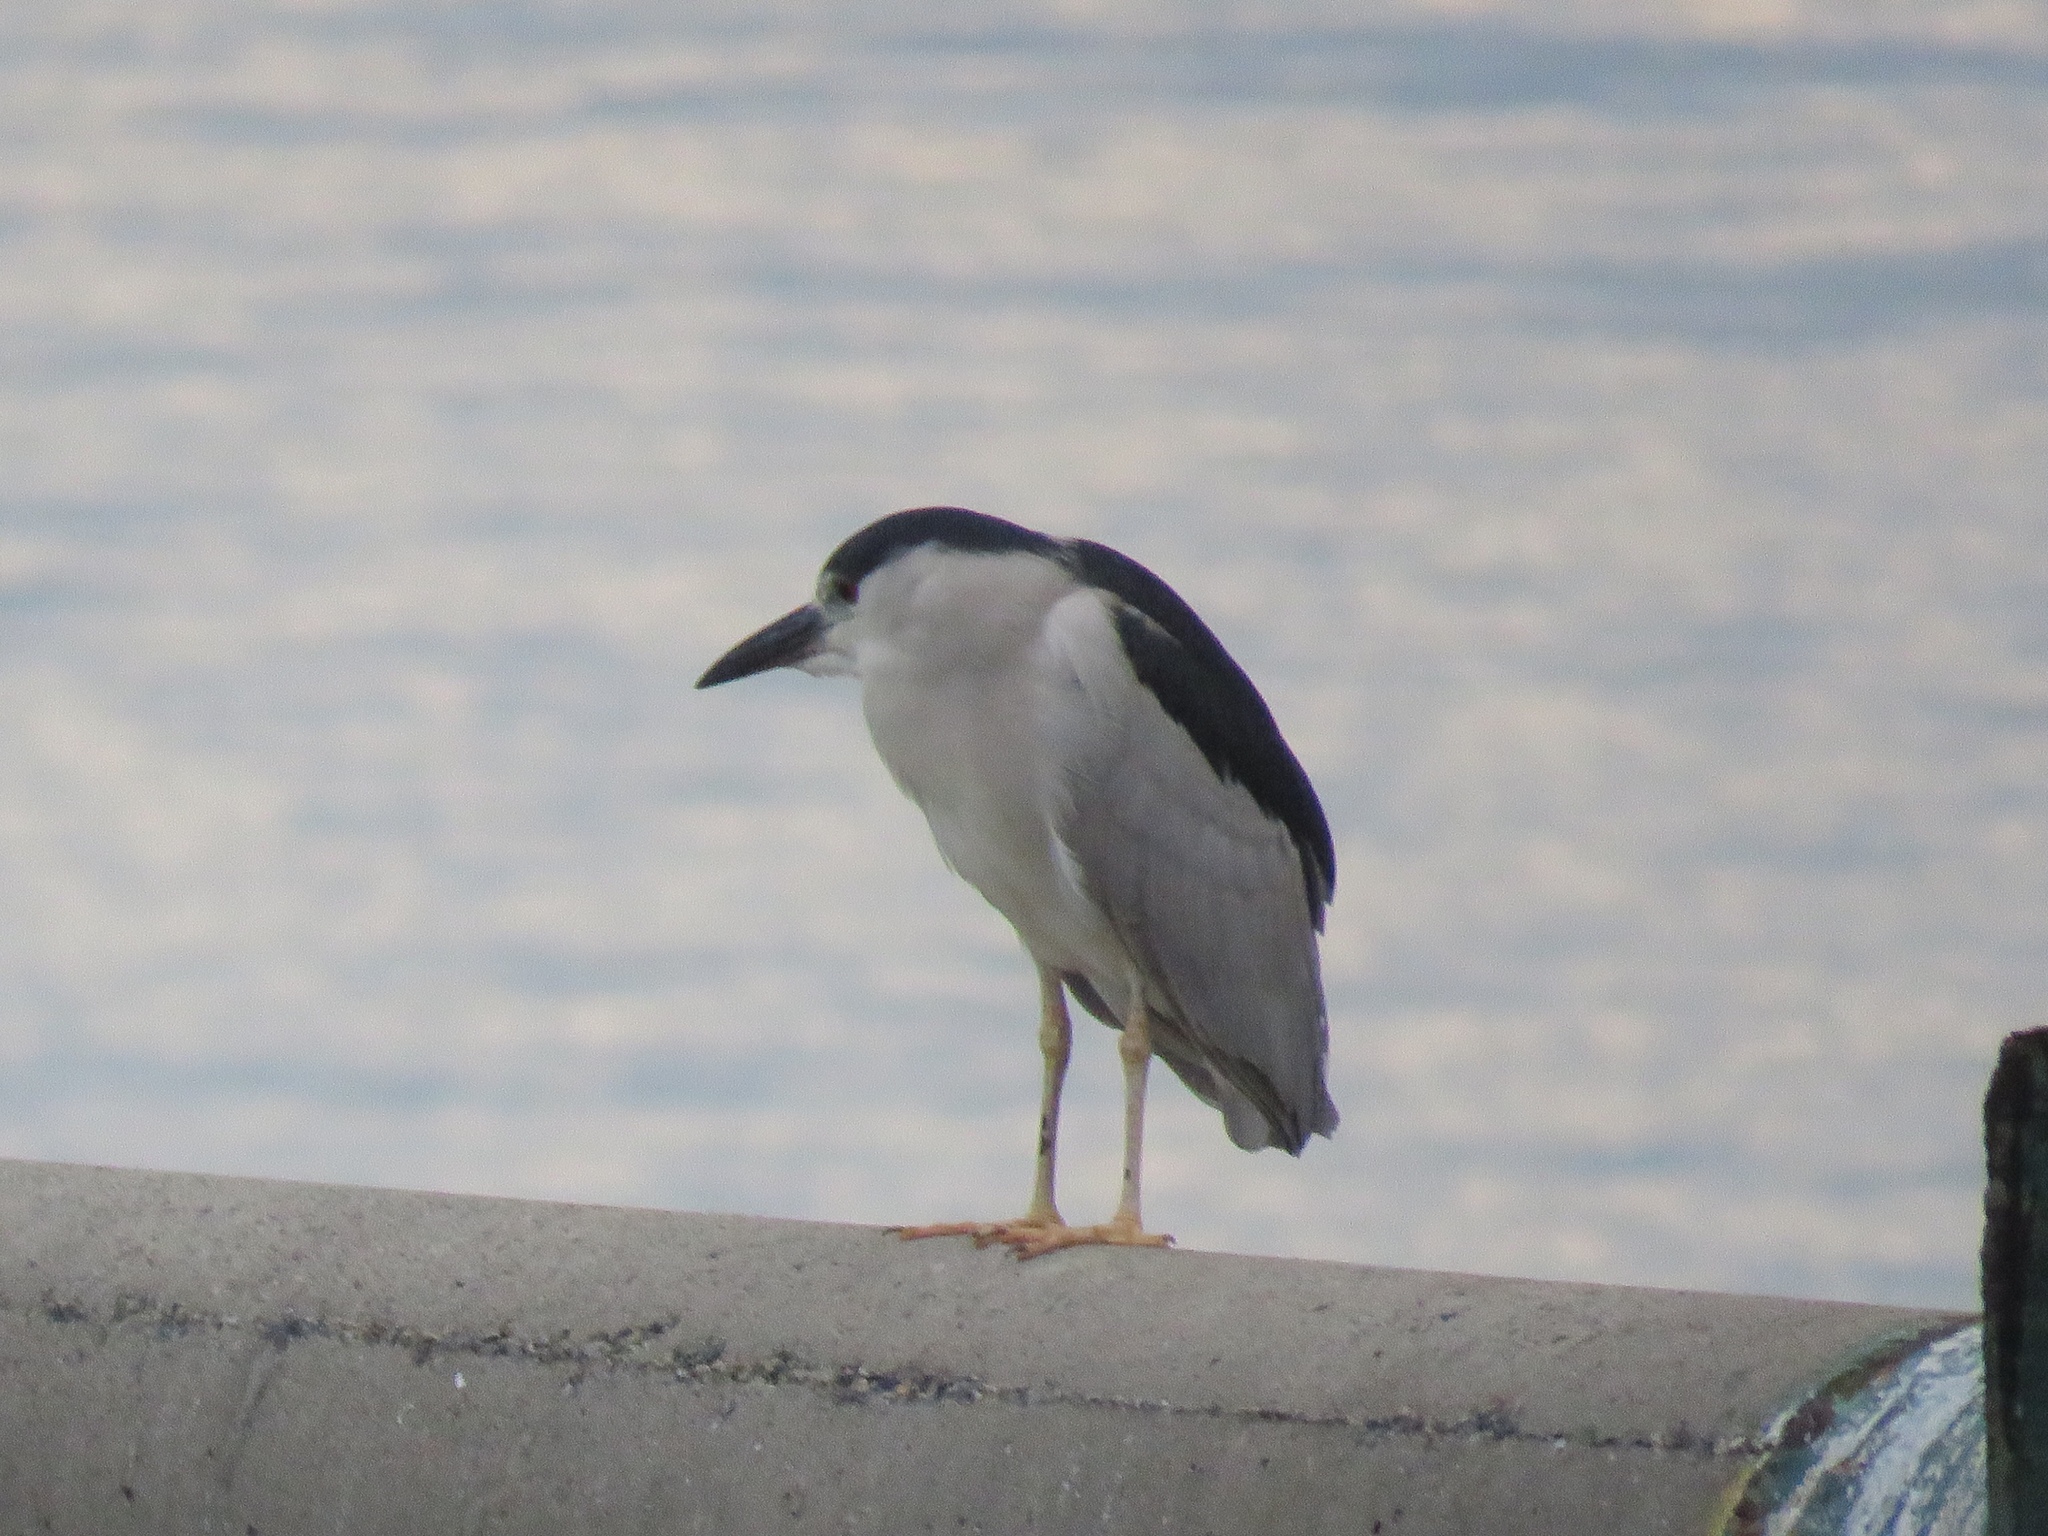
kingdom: Animalia
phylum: Chordata
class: Aves
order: Pelecaniformes
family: Ardeidae
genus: Nycticorax
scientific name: Nycticorax nycticorax
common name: Black-crowned night heron
